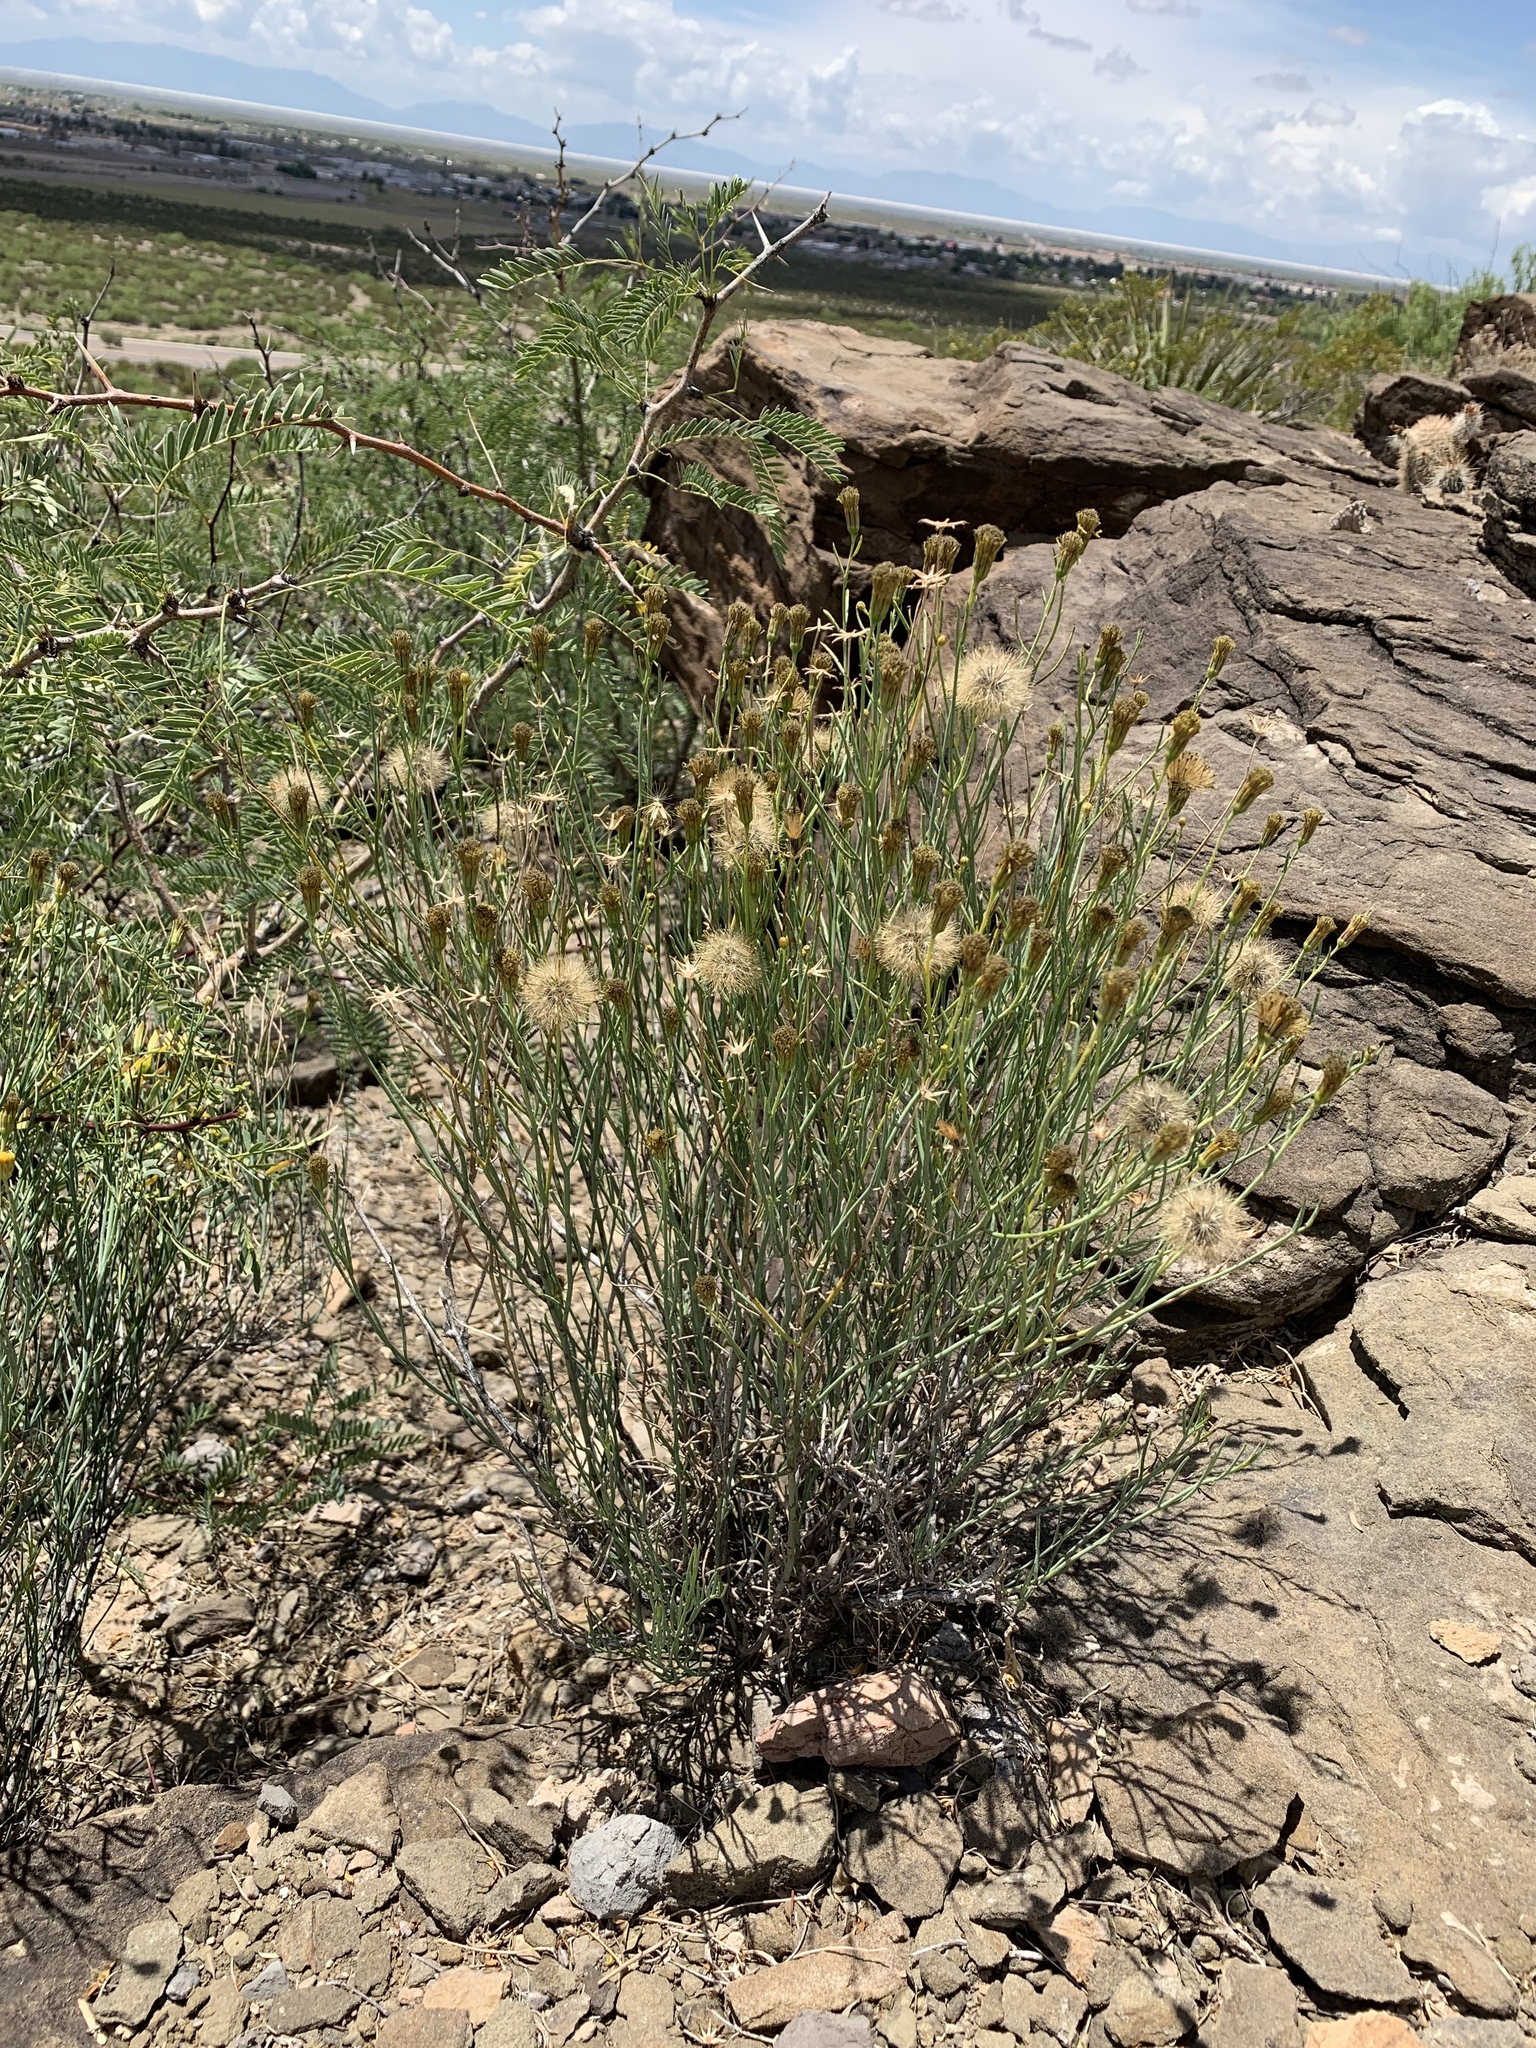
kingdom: Plantae
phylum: Tracheophyta
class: Magnoliopsida
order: Asterales
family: Asteraceae
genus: Porophyllum
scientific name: Porophyllum scoparium
